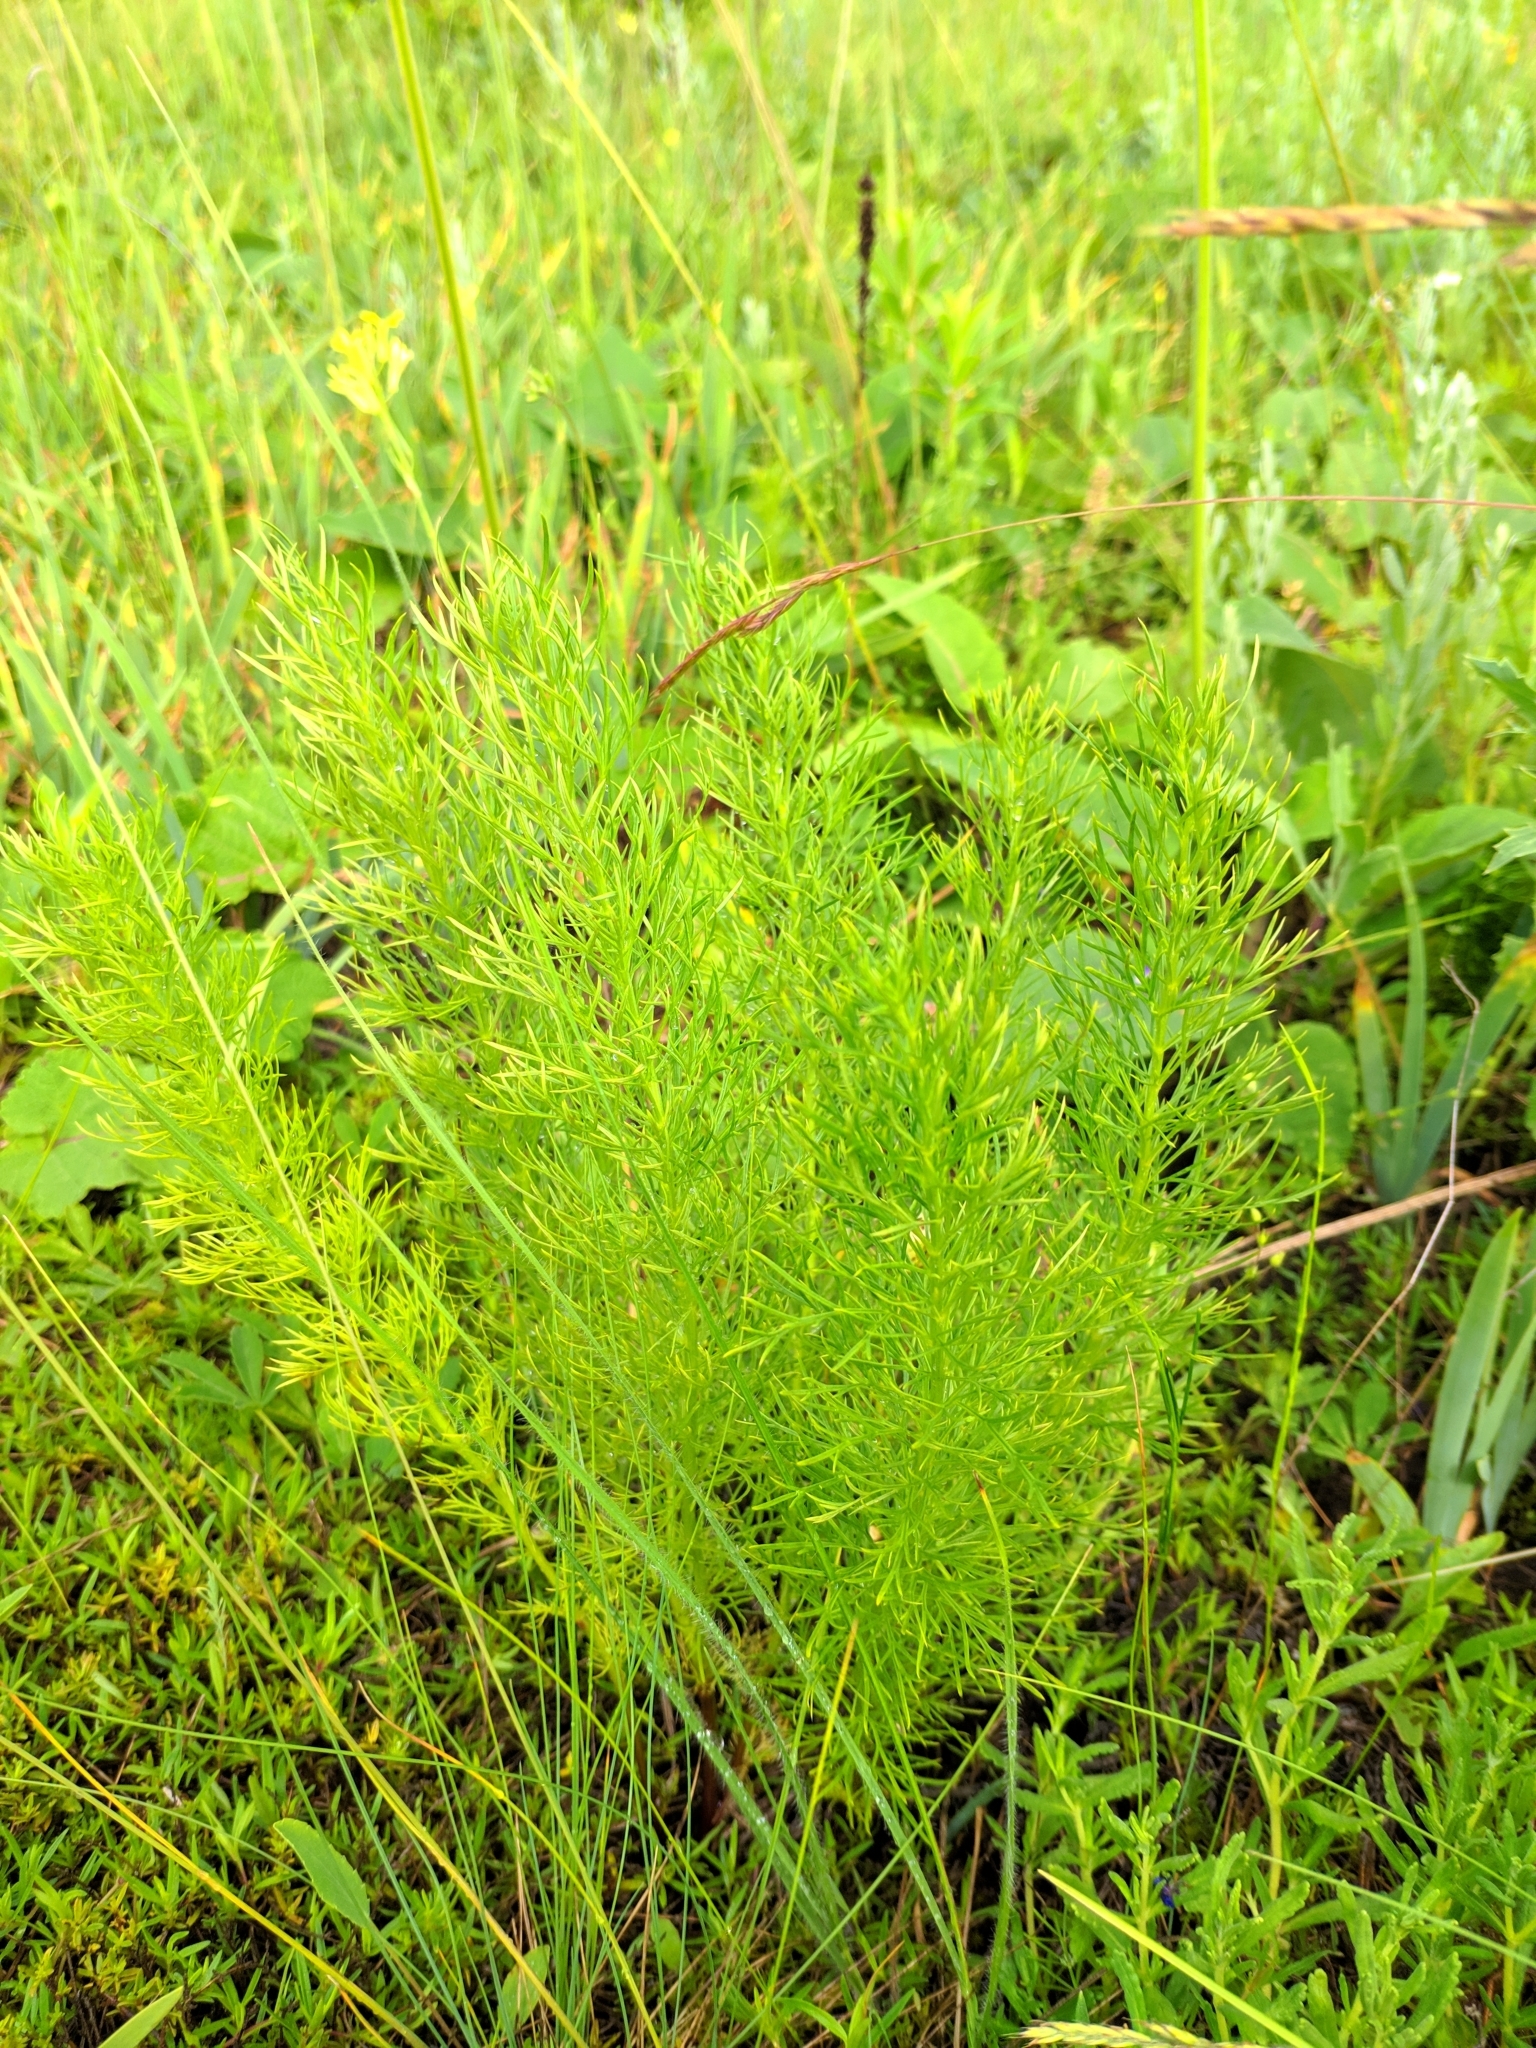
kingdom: Plantae
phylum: Tracheophyta
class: Magnoliopsida
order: Ranunculales
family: Ranunculaceae
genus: Adonis
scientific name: Adonis vernalis
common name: Yellow pheasants-eye
